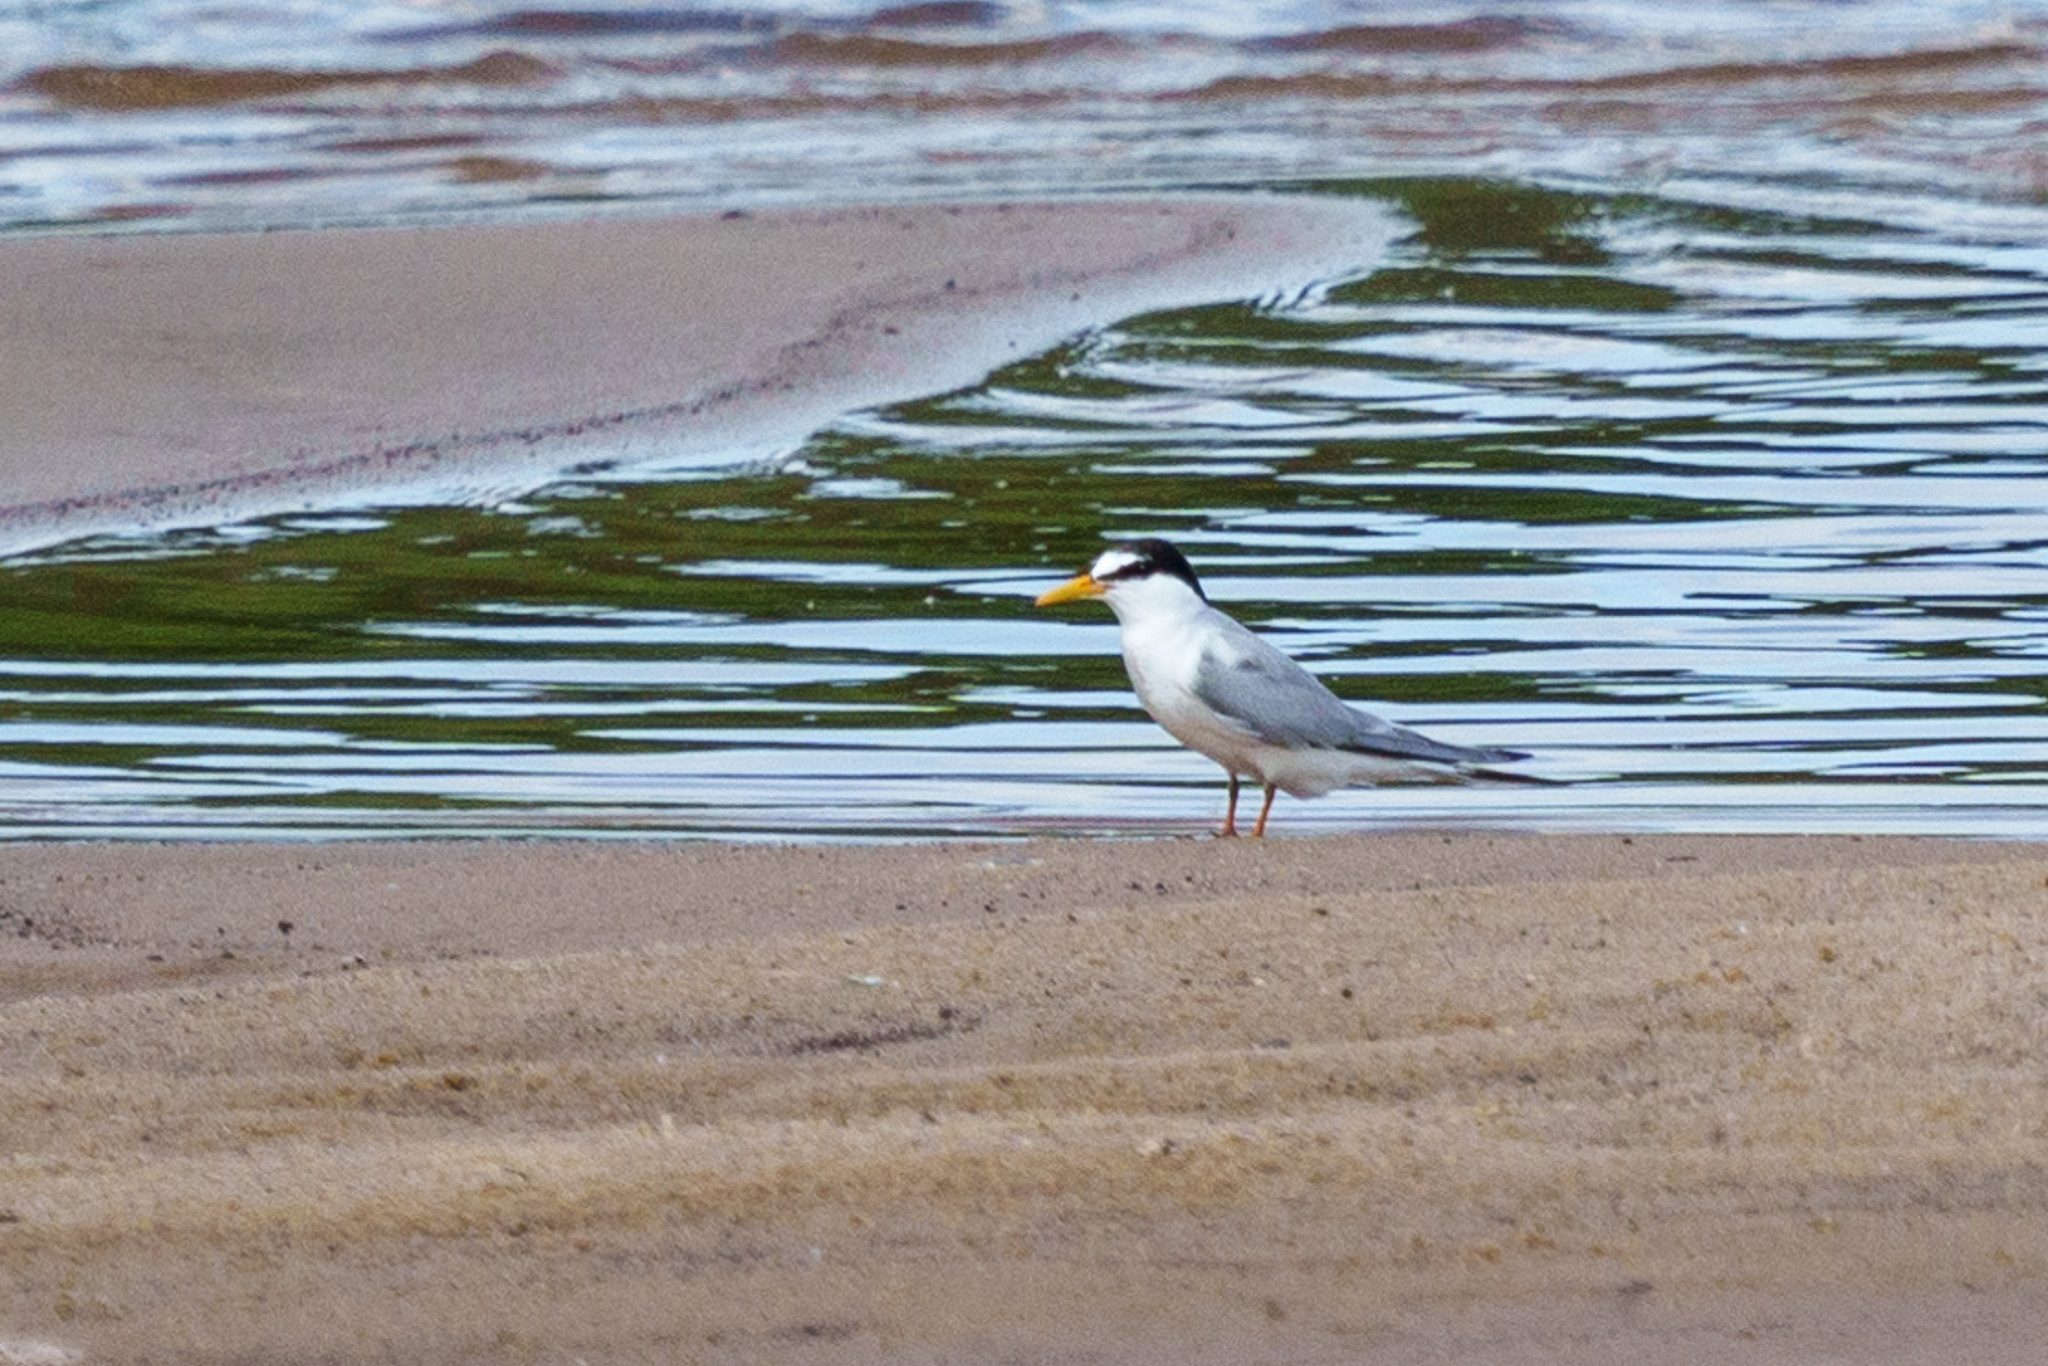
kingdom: Animalia
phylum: Chordata
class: Aves
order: Charadriiformes
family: Laridae
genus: Sternula
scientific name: Sternula albifrons
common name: Little tern
